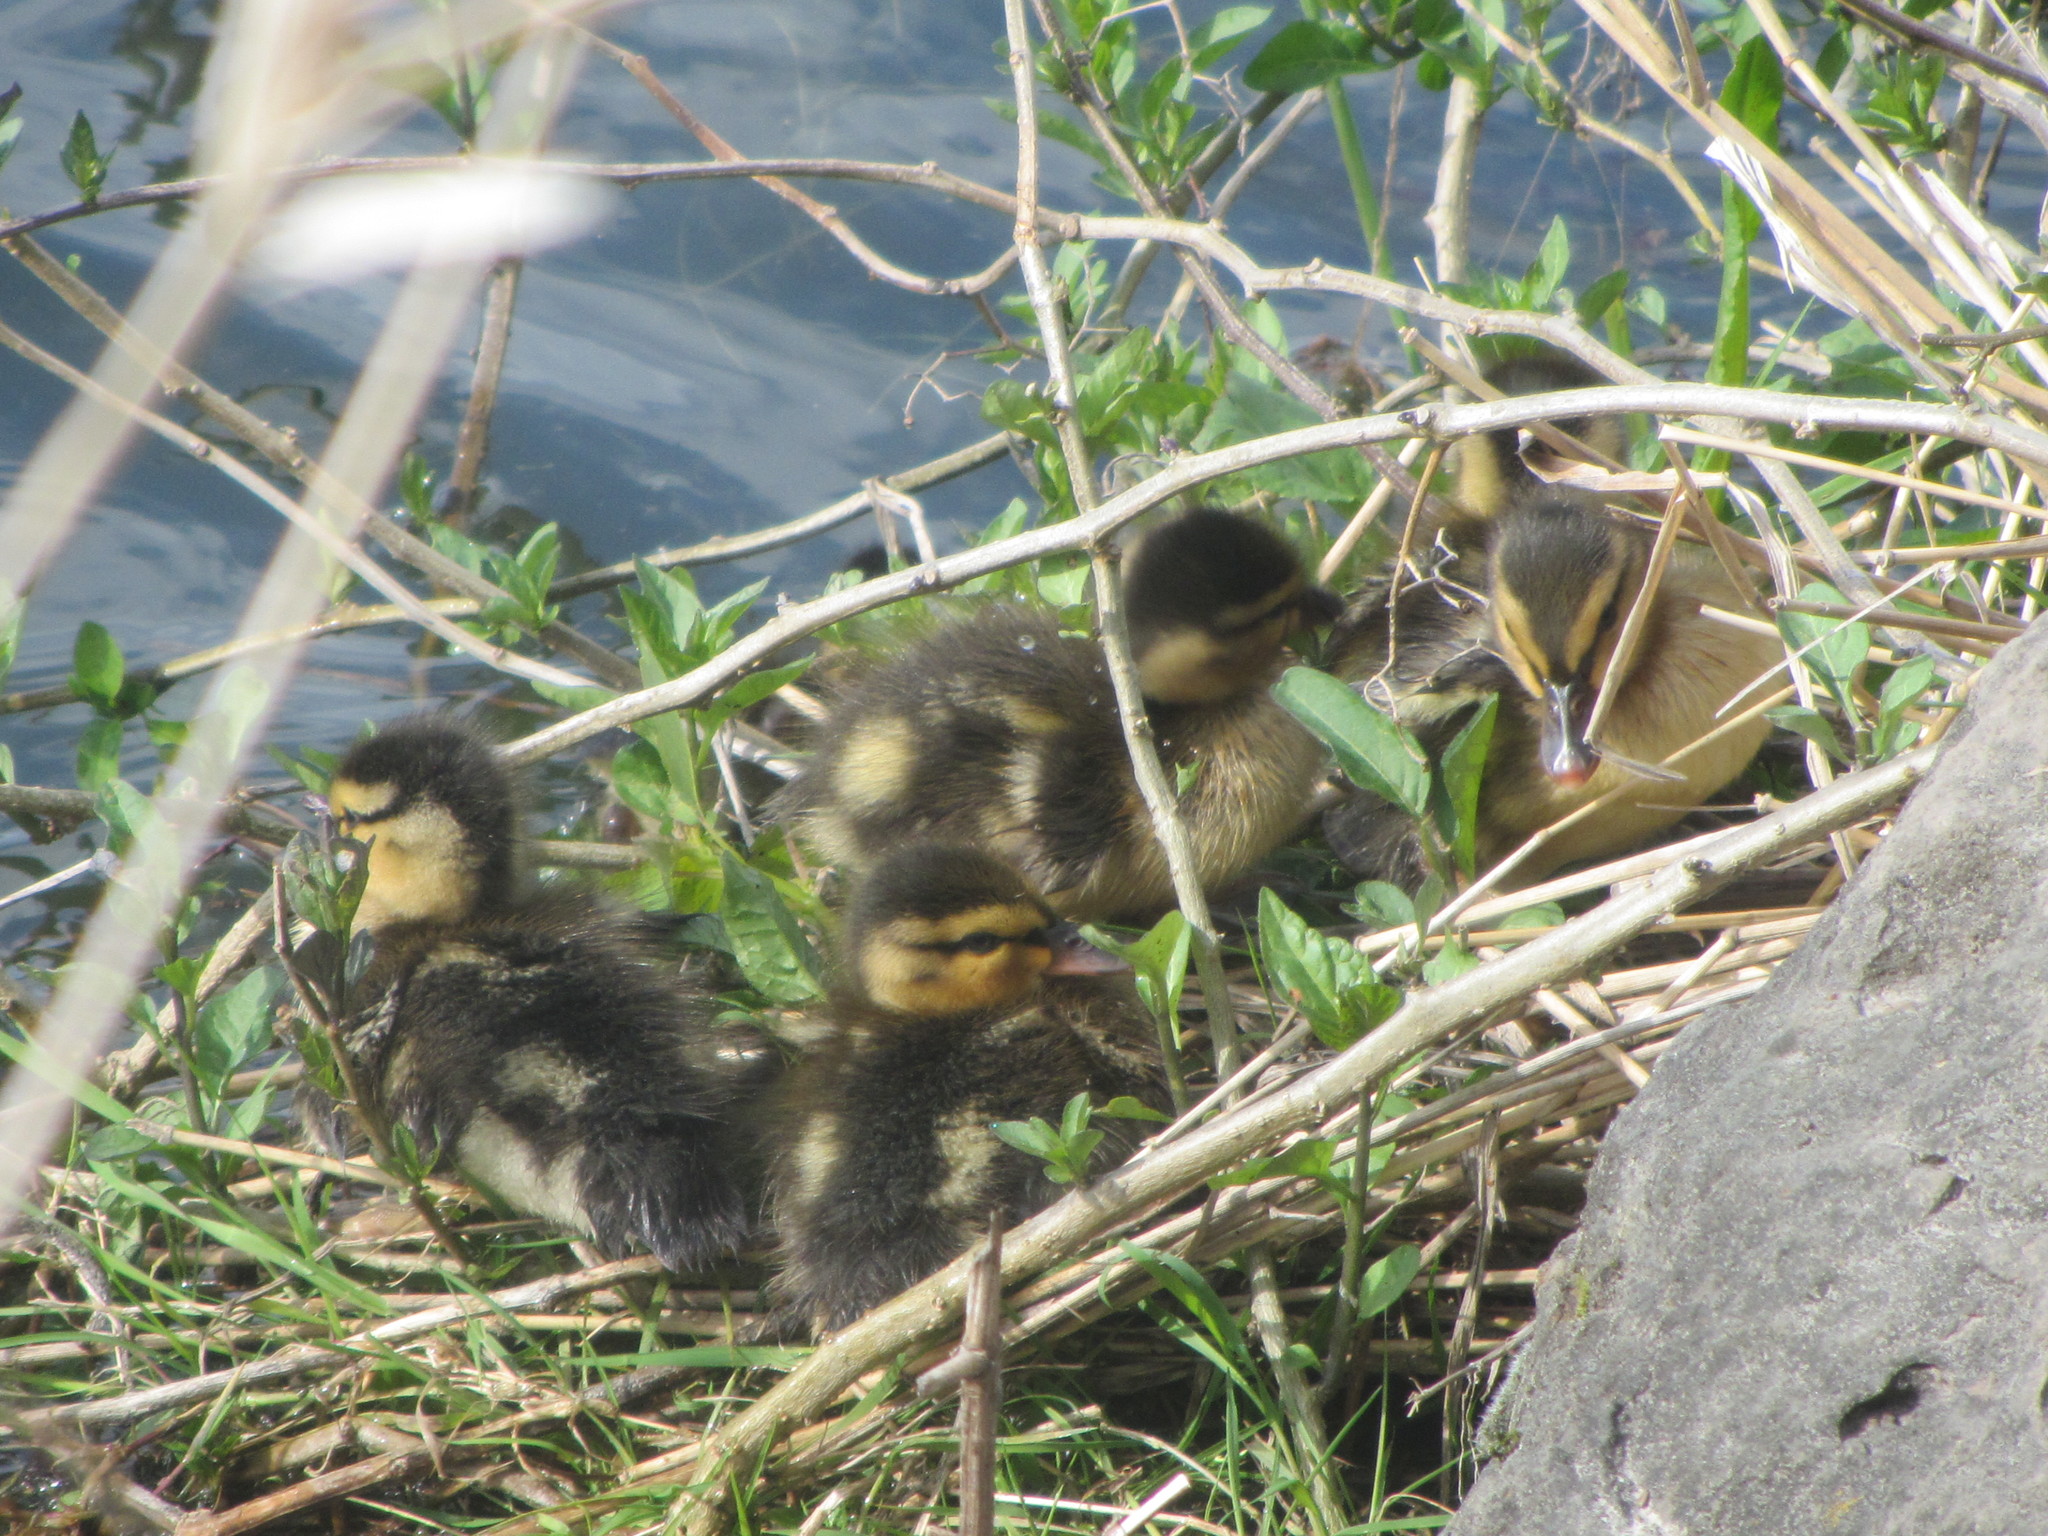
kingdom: Animalia
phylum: Chordata
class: Aves
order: Anseriformes
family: Anatidae
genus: Anas
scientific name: Anas platyrhynchos
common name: Mallard
